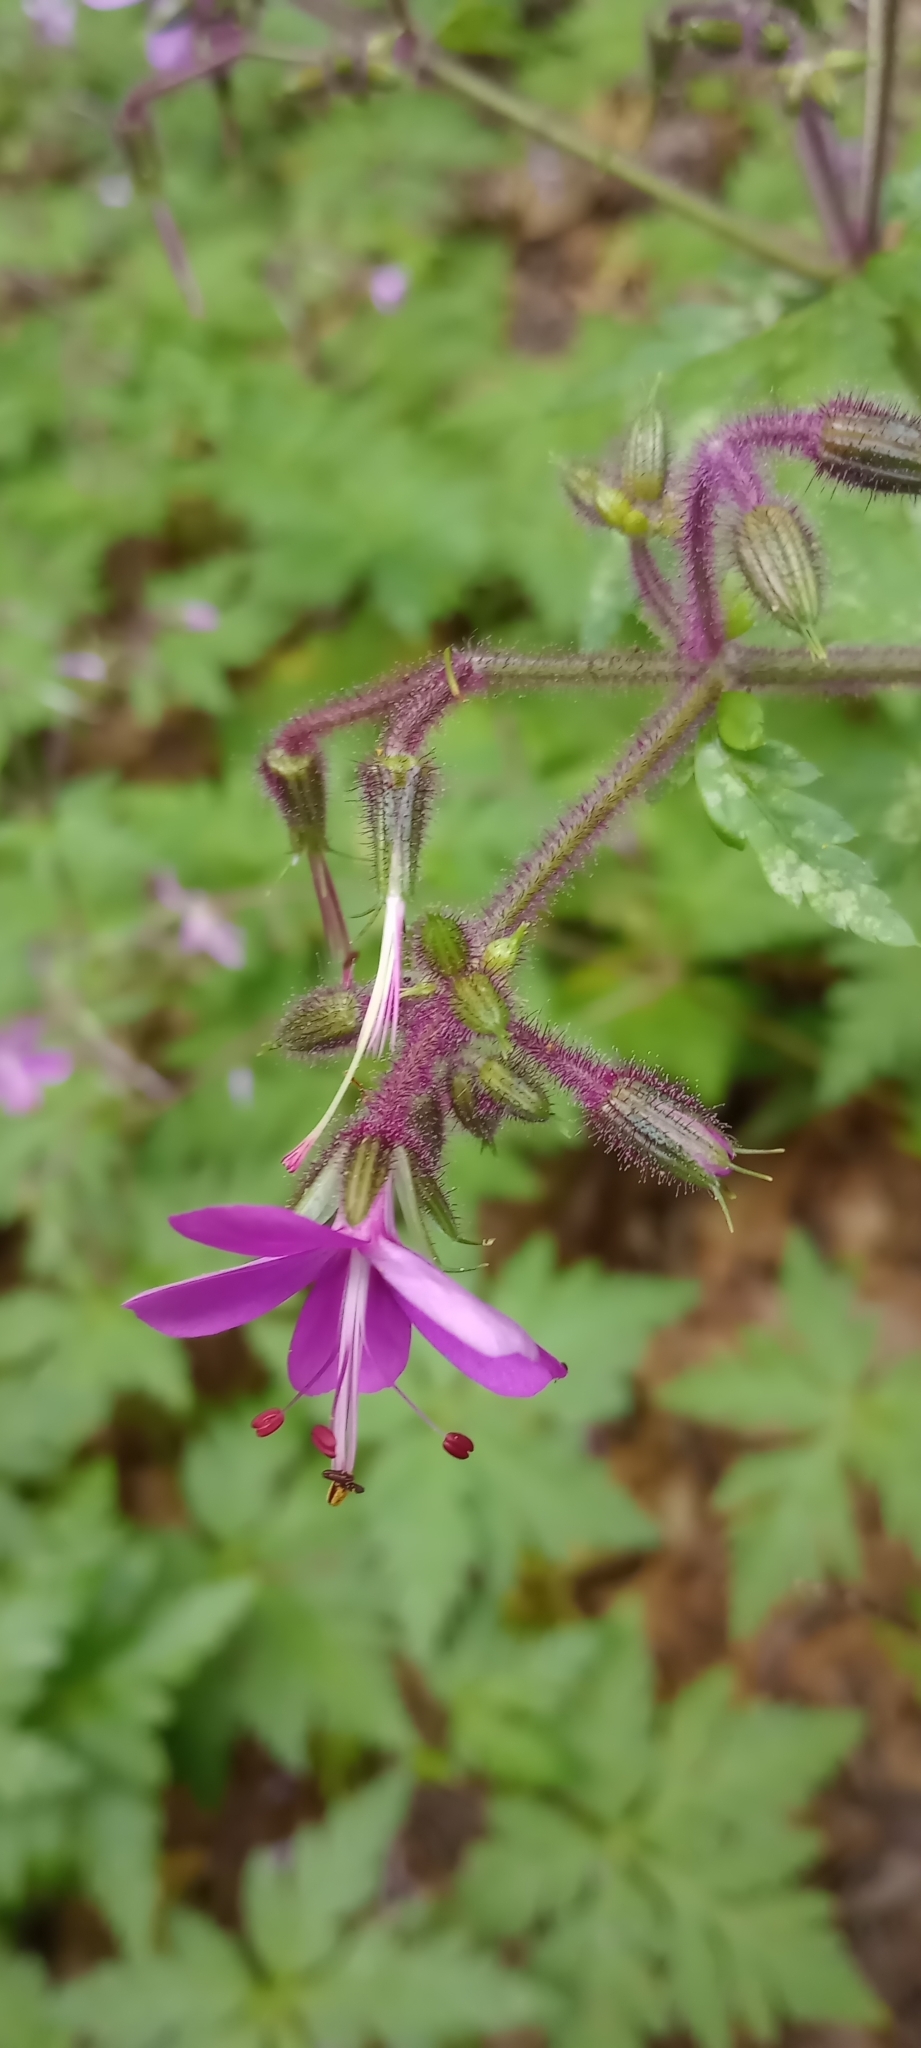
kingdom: Plantae
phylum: Tracheophyta
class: Magnoliopsida
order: Geraniales
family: Geraniaceae
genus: Geranium
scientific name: Geranium reuteri
